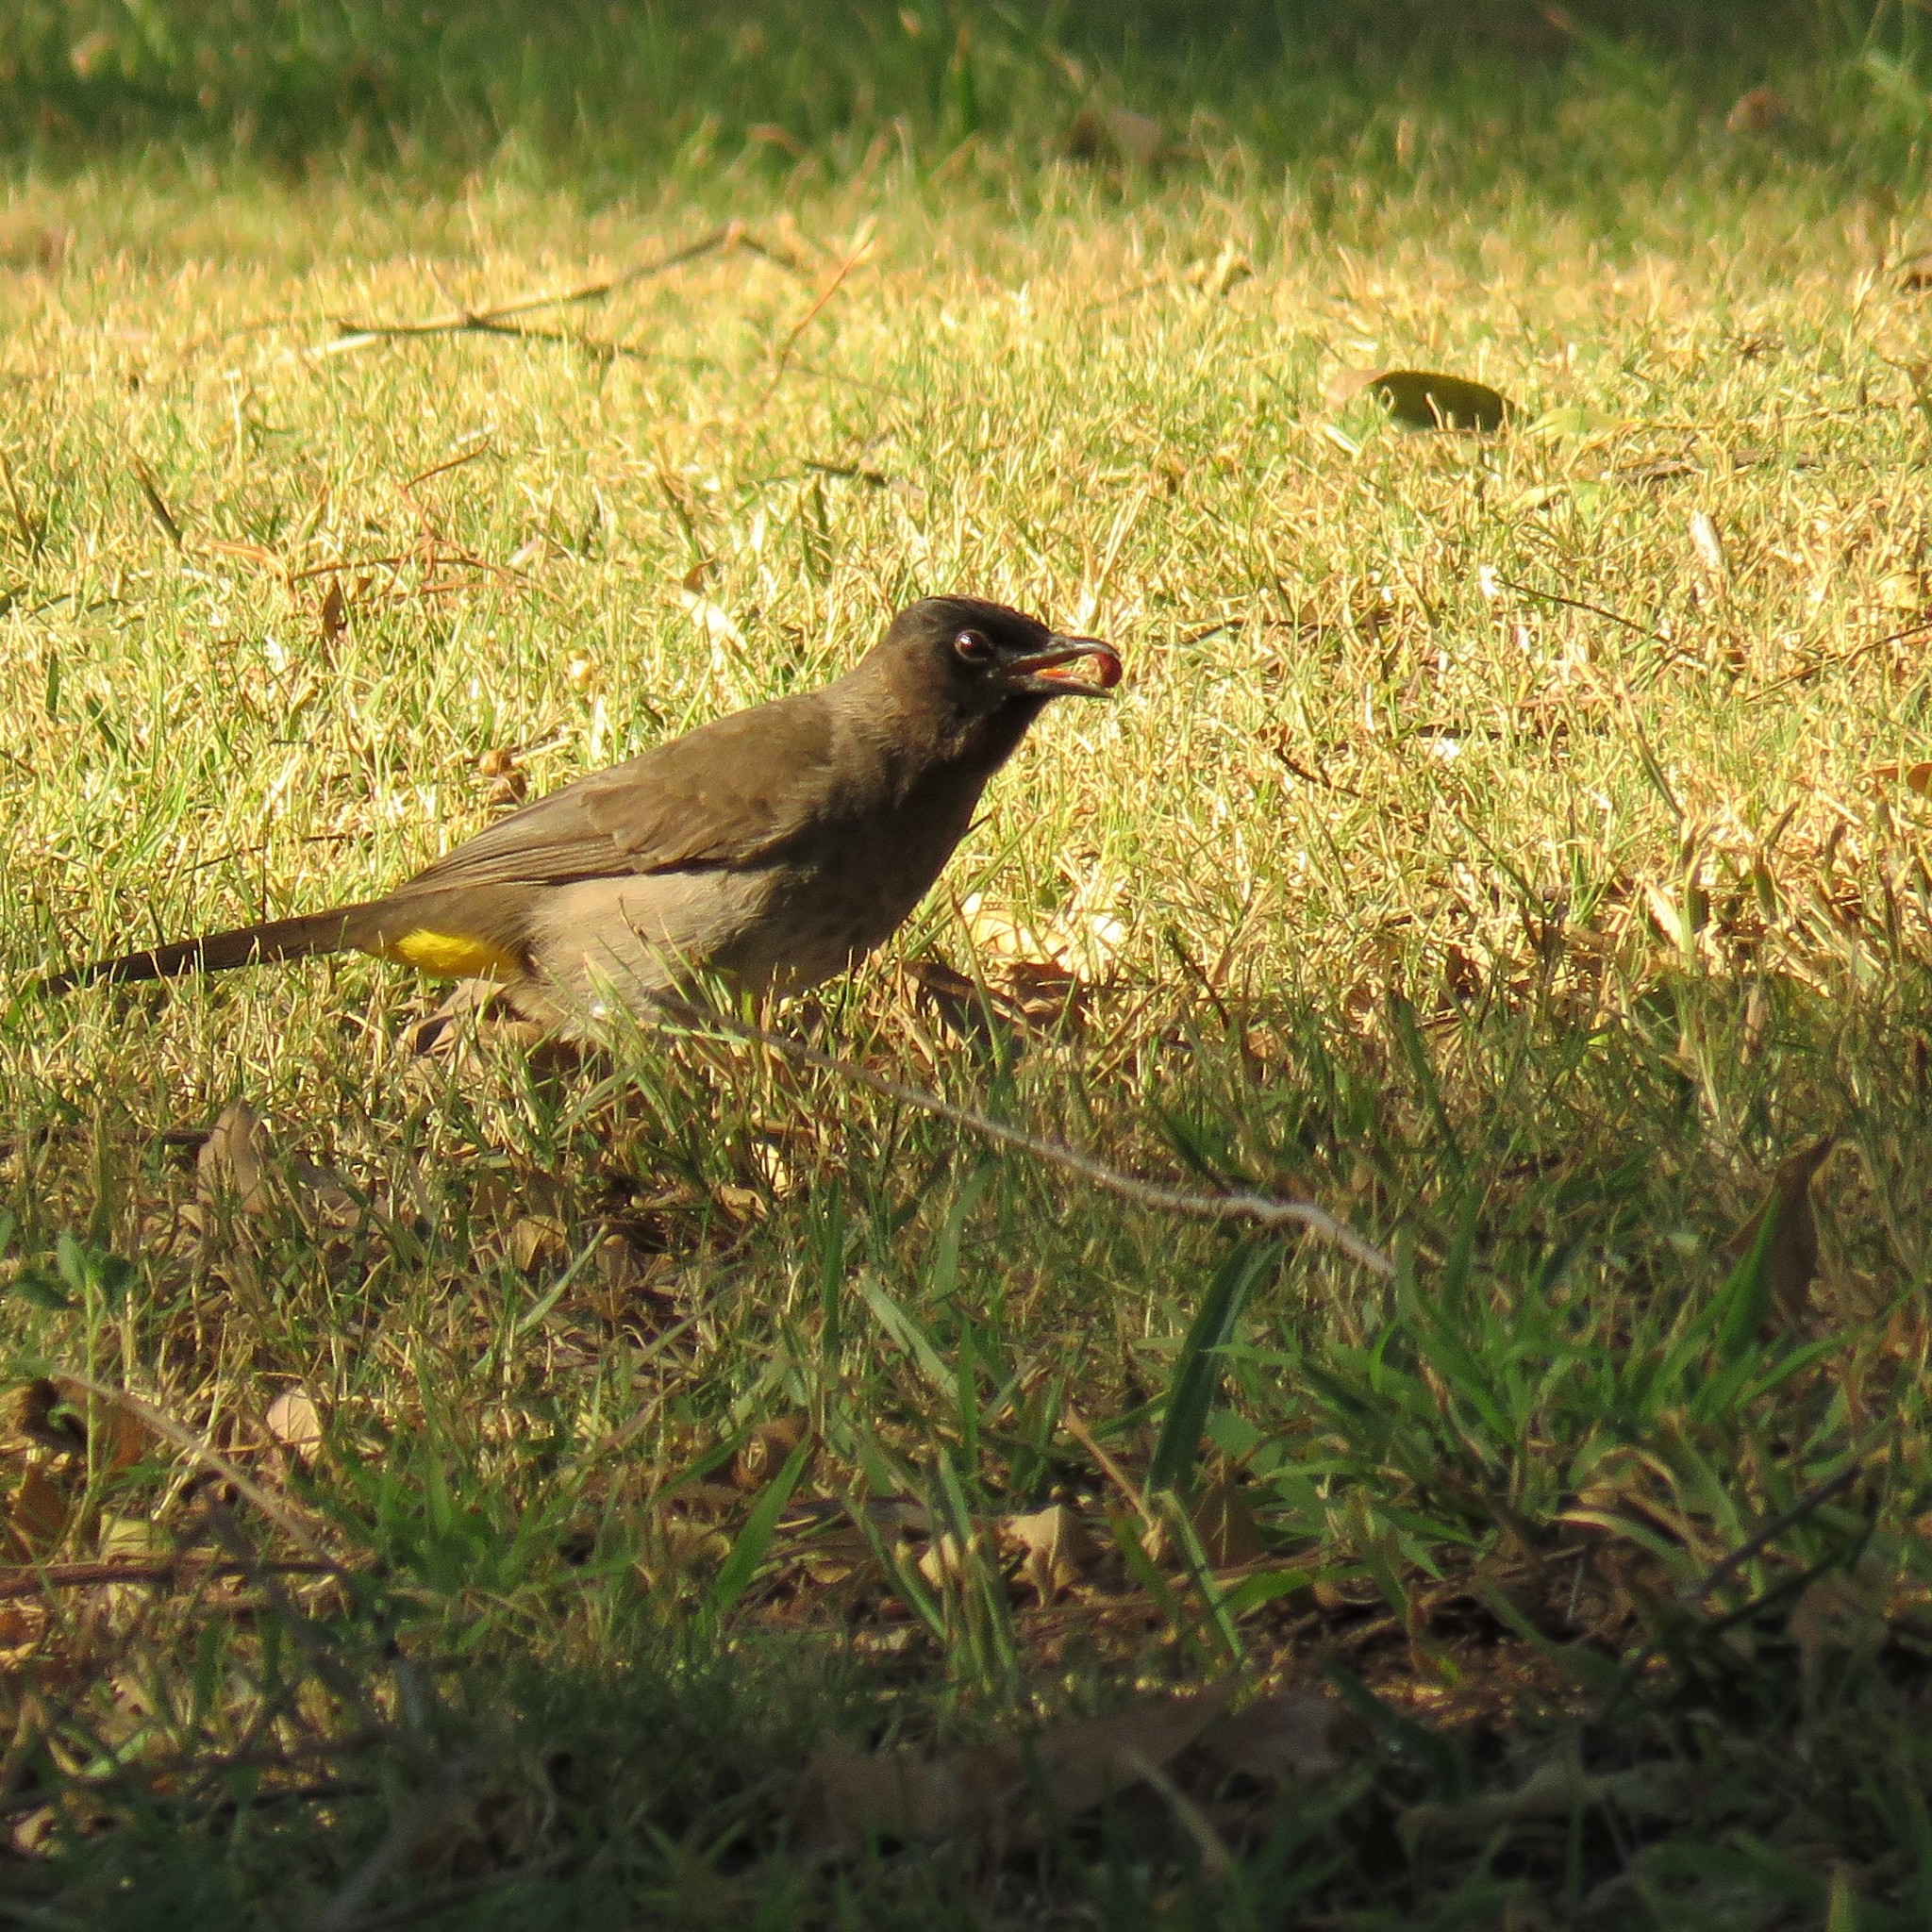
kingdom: Animalia
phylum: Chordata
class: Aves
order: Passeriformes
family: Pycnonotidae
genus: Pycnonotus
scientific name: Pycnonotus barbatus
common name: Common bulbul
